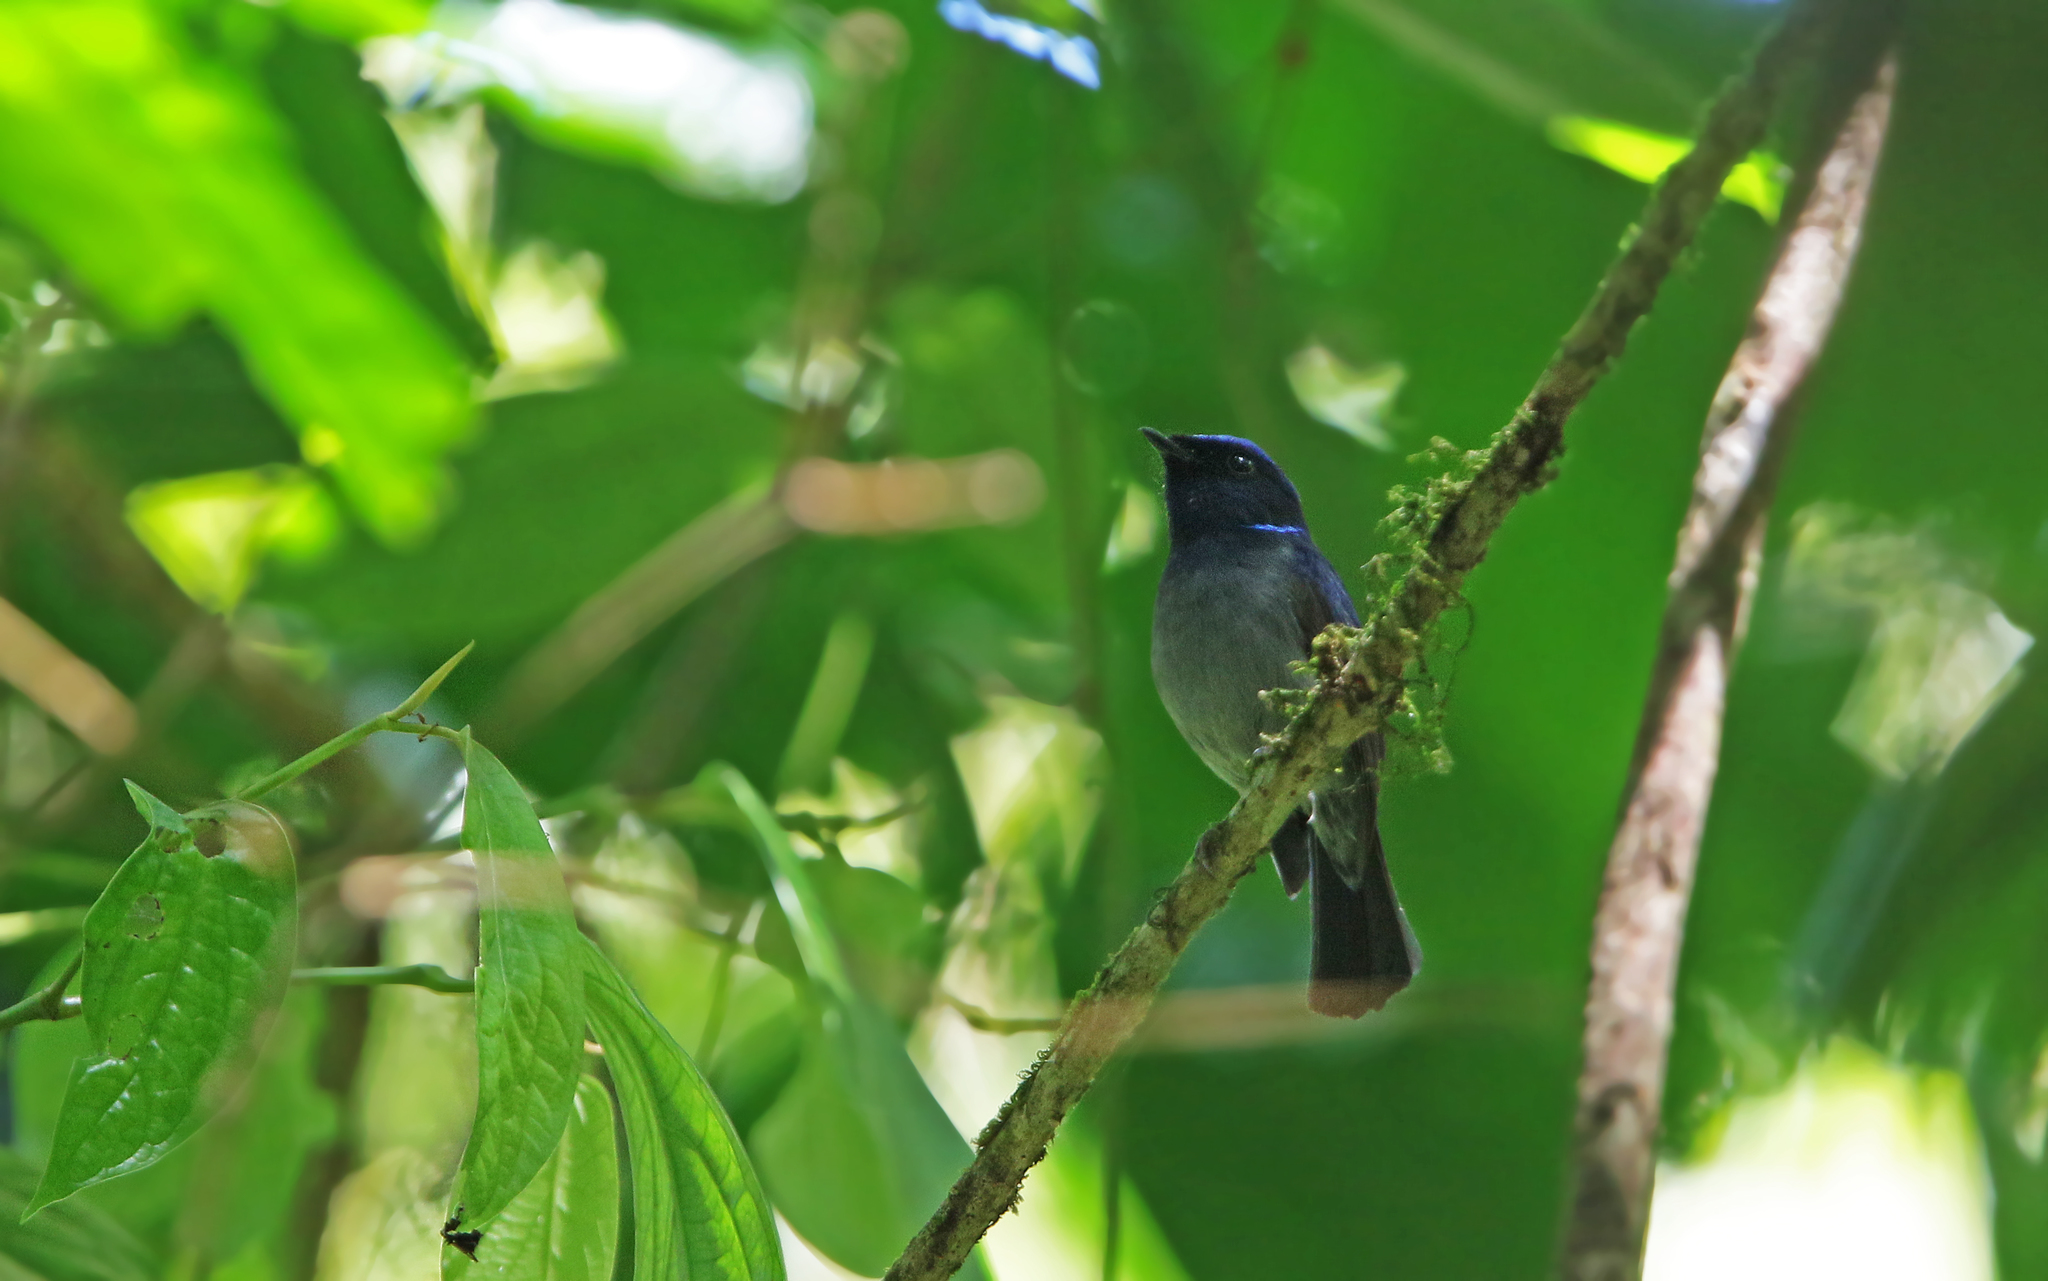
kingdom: Animalia
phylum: Chordata
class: Aves
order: Passeriformes
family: Muscicapidae
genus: Niltava
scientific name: Niltava macgrigoriae
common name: Small niltava
